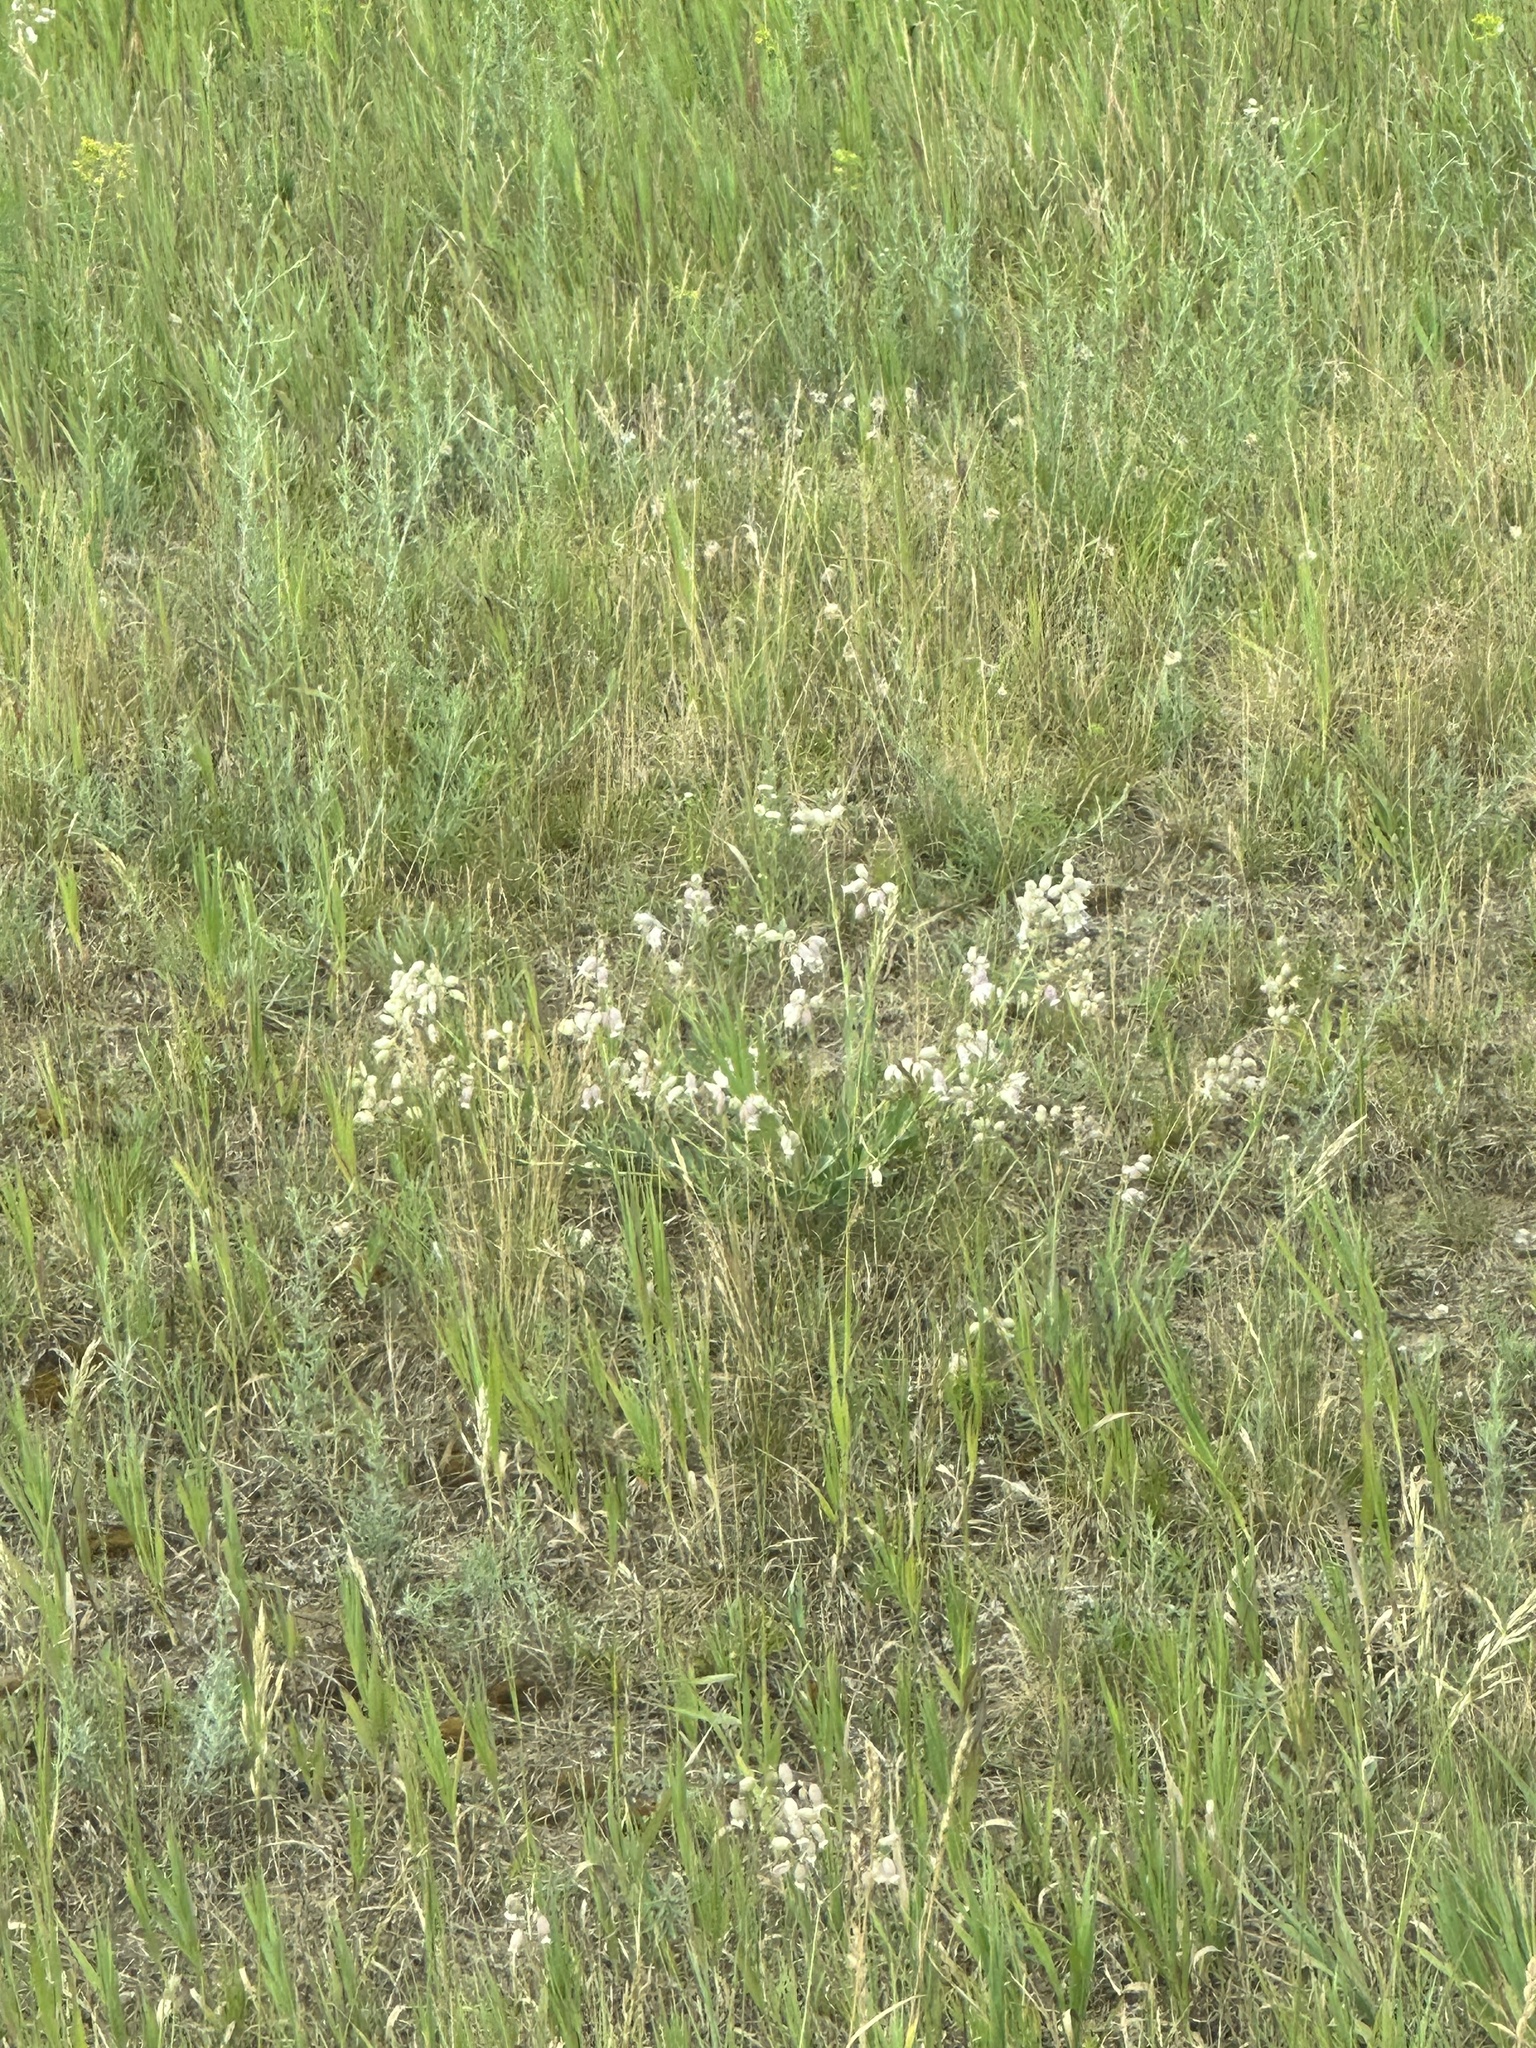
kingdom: Plantae
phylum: Tracheophyta
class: Magnoliopsida
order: Caryophyllales
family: Caryophyllaceae
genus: Silene
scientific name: Silene latifolia
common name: White campion
